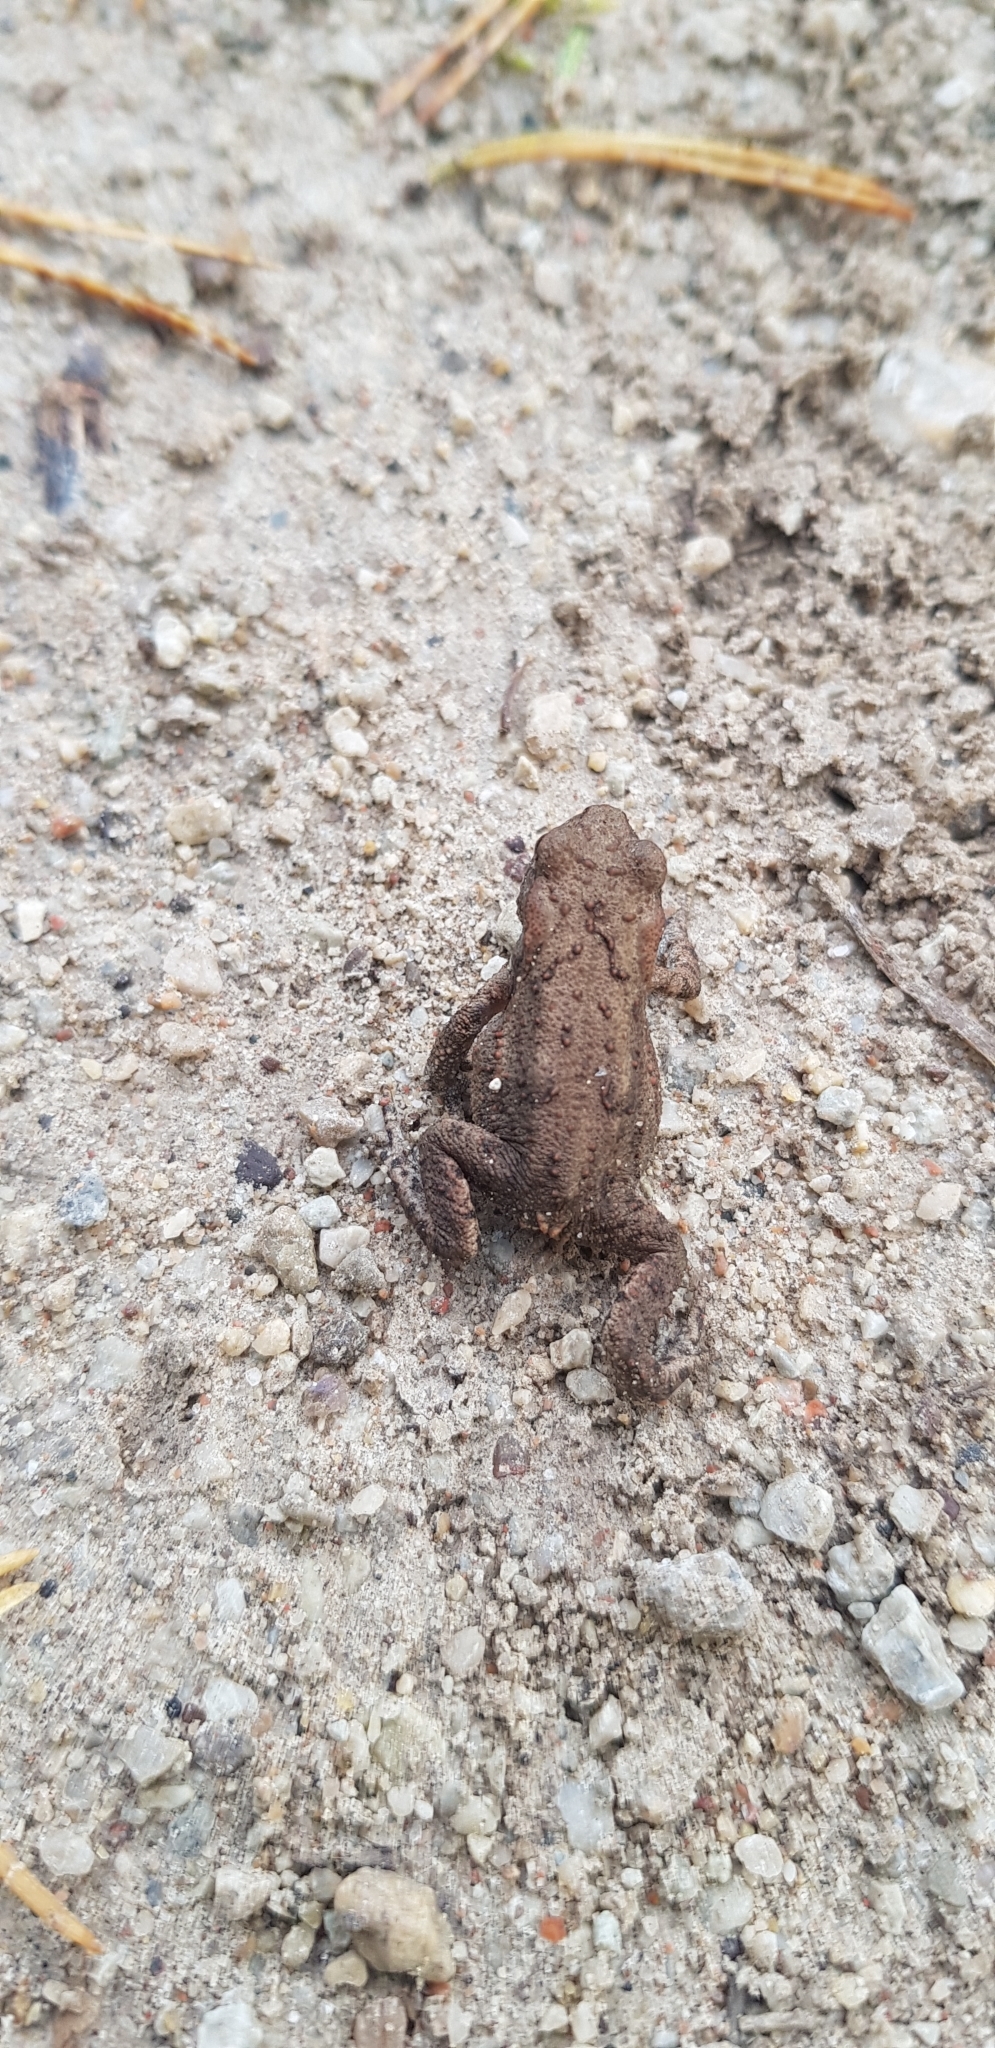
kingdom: Animalia
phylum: Chordata
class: Amphibia
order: Anura
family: Bufonidae
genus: Bufo
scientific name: Bufo bufo
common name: Common toad
